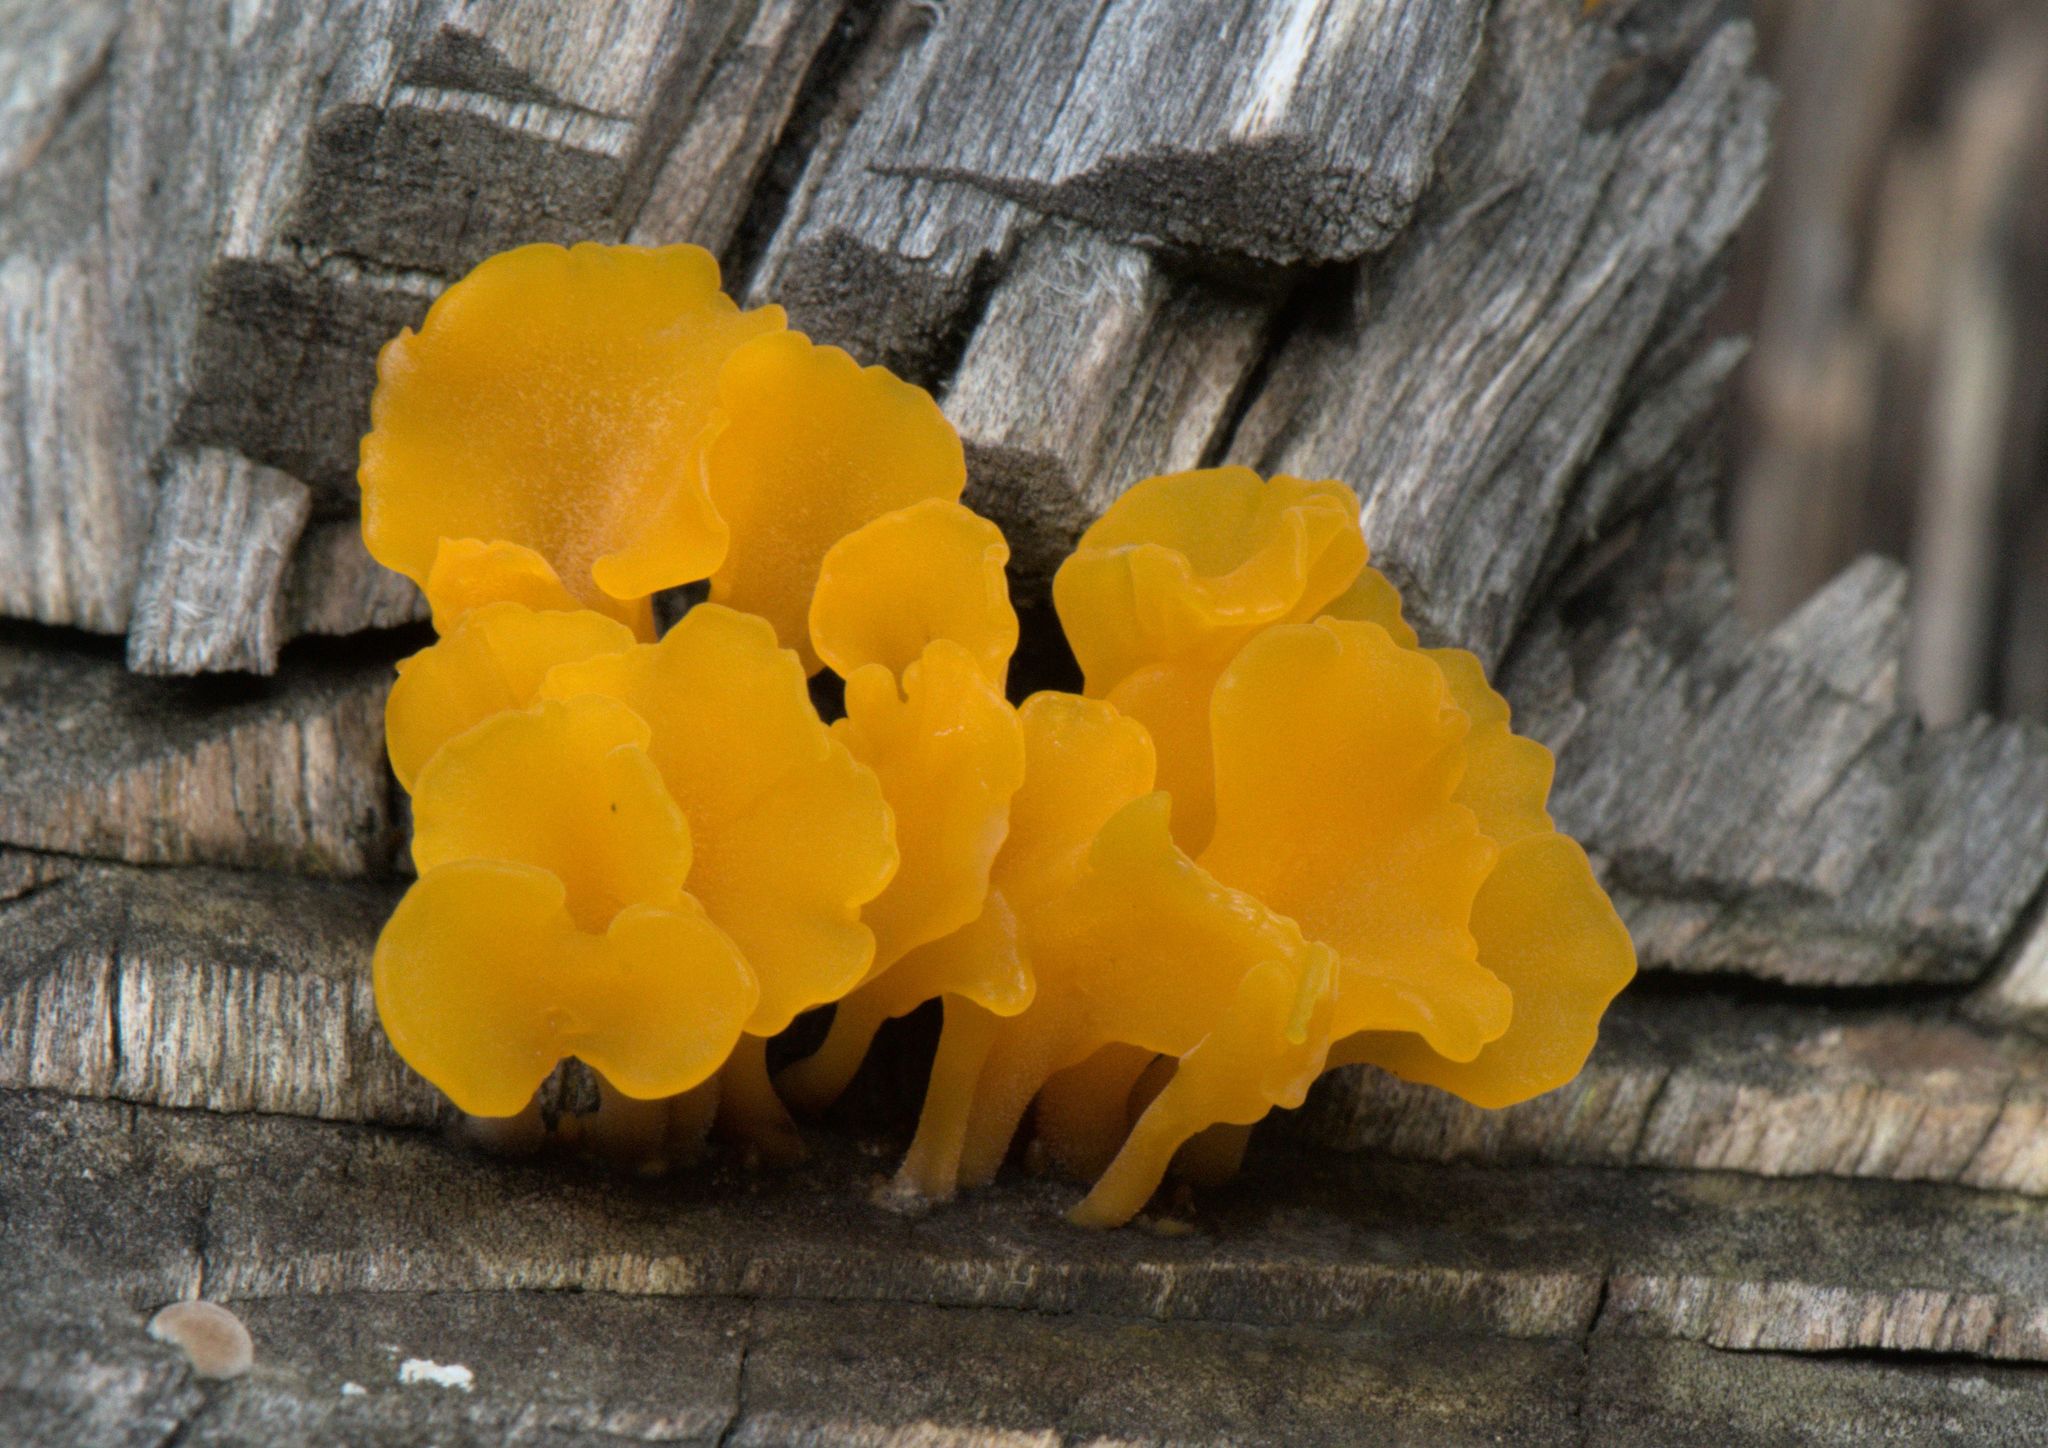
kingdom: Fungi
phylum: Basidiomycota
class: Dacrymycetes
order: Dacrymycetales
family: Dacrymycetaceae
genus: Dacrymyces
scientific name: Dacrymyces spathularius
